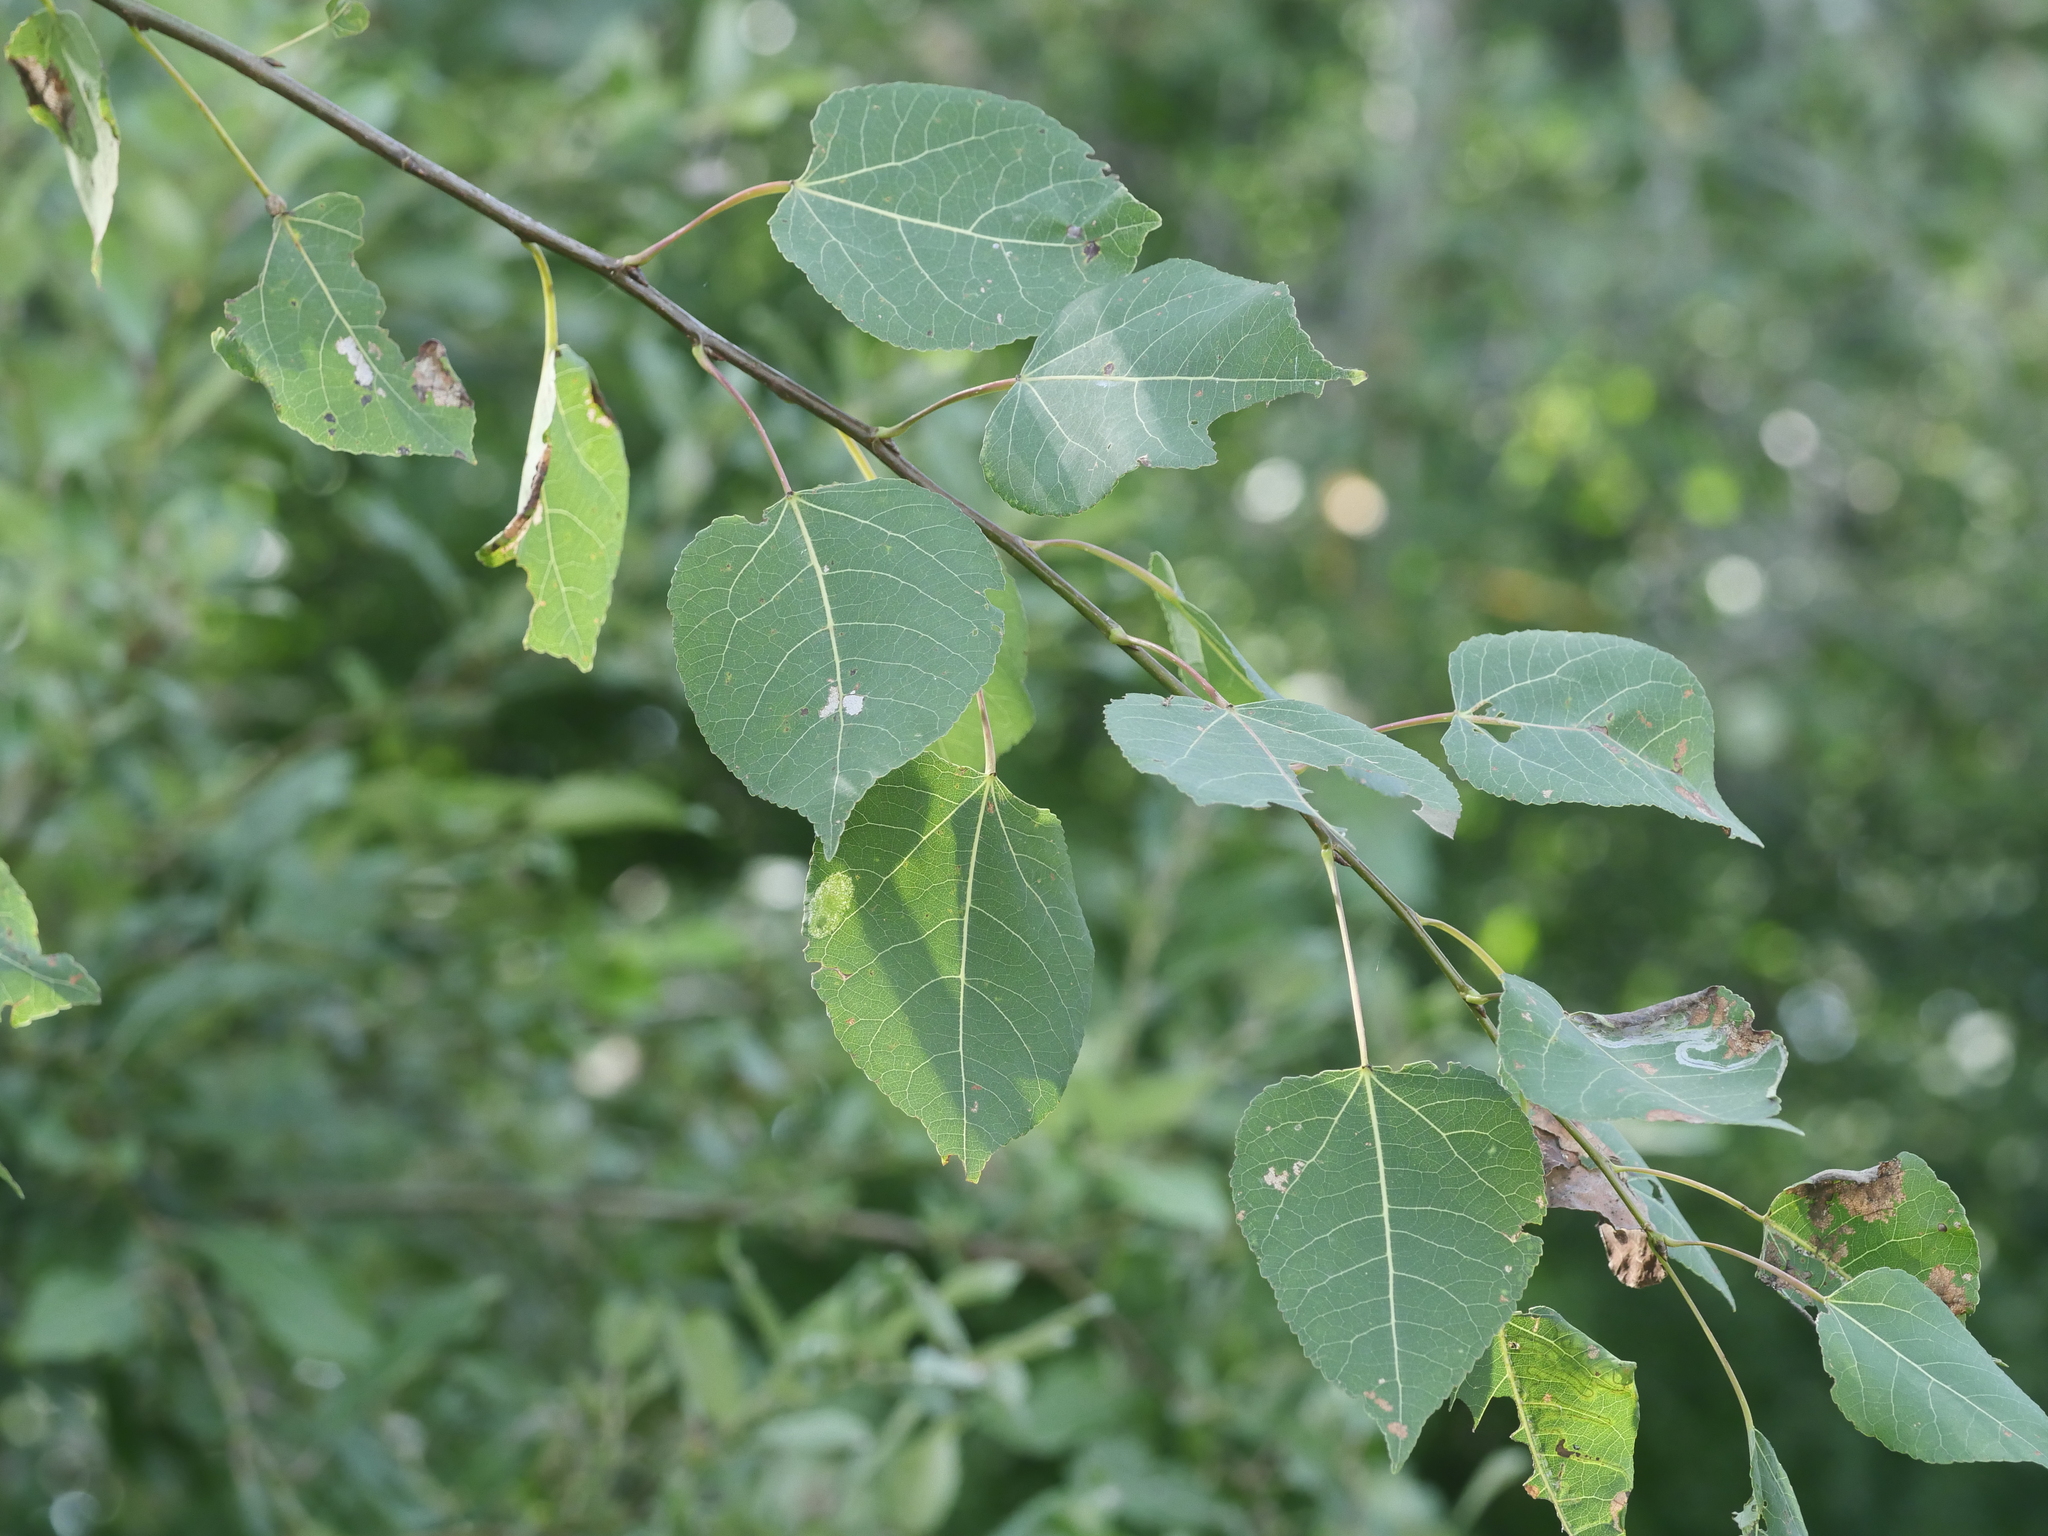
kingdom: Plantae
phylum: Tracheophyta
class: Magnoliopsida
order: Malpighiales
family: Salicaceae
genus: Populus
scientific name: Populus tremuloides
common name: Quaking aspen
